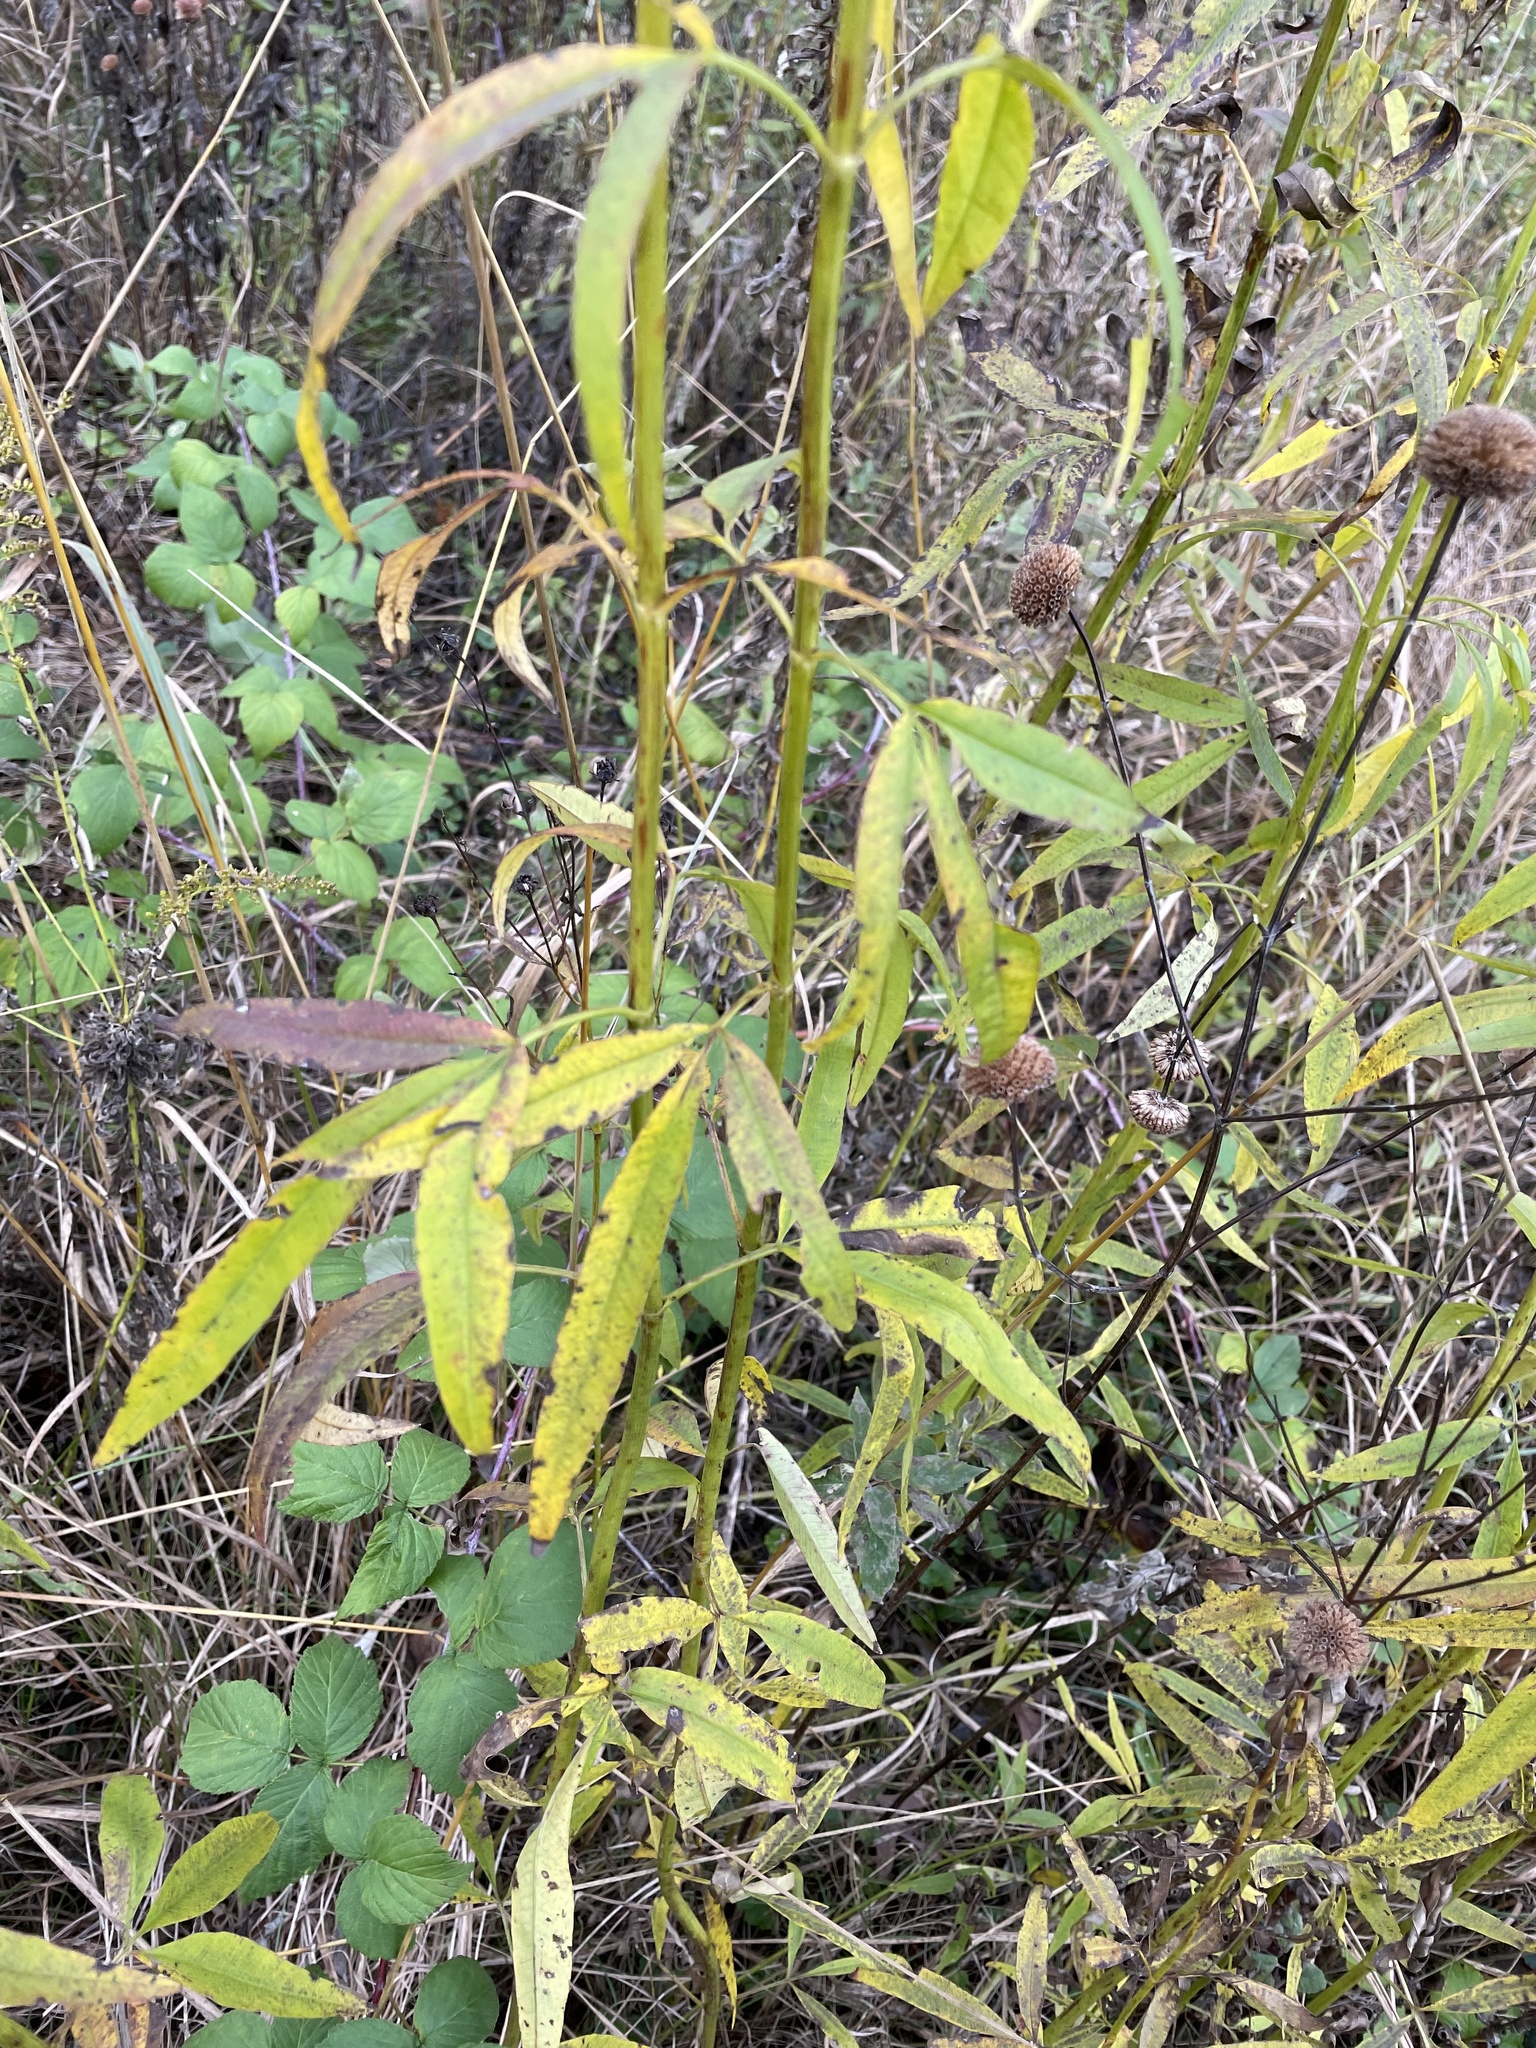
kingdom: Plantae
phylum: Tracheophyta
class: Magnoliopsida
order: Asterales
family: Asteraceae
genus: Coreopsis
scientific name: Coreopsis tripteris
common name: Tall coreopsis
